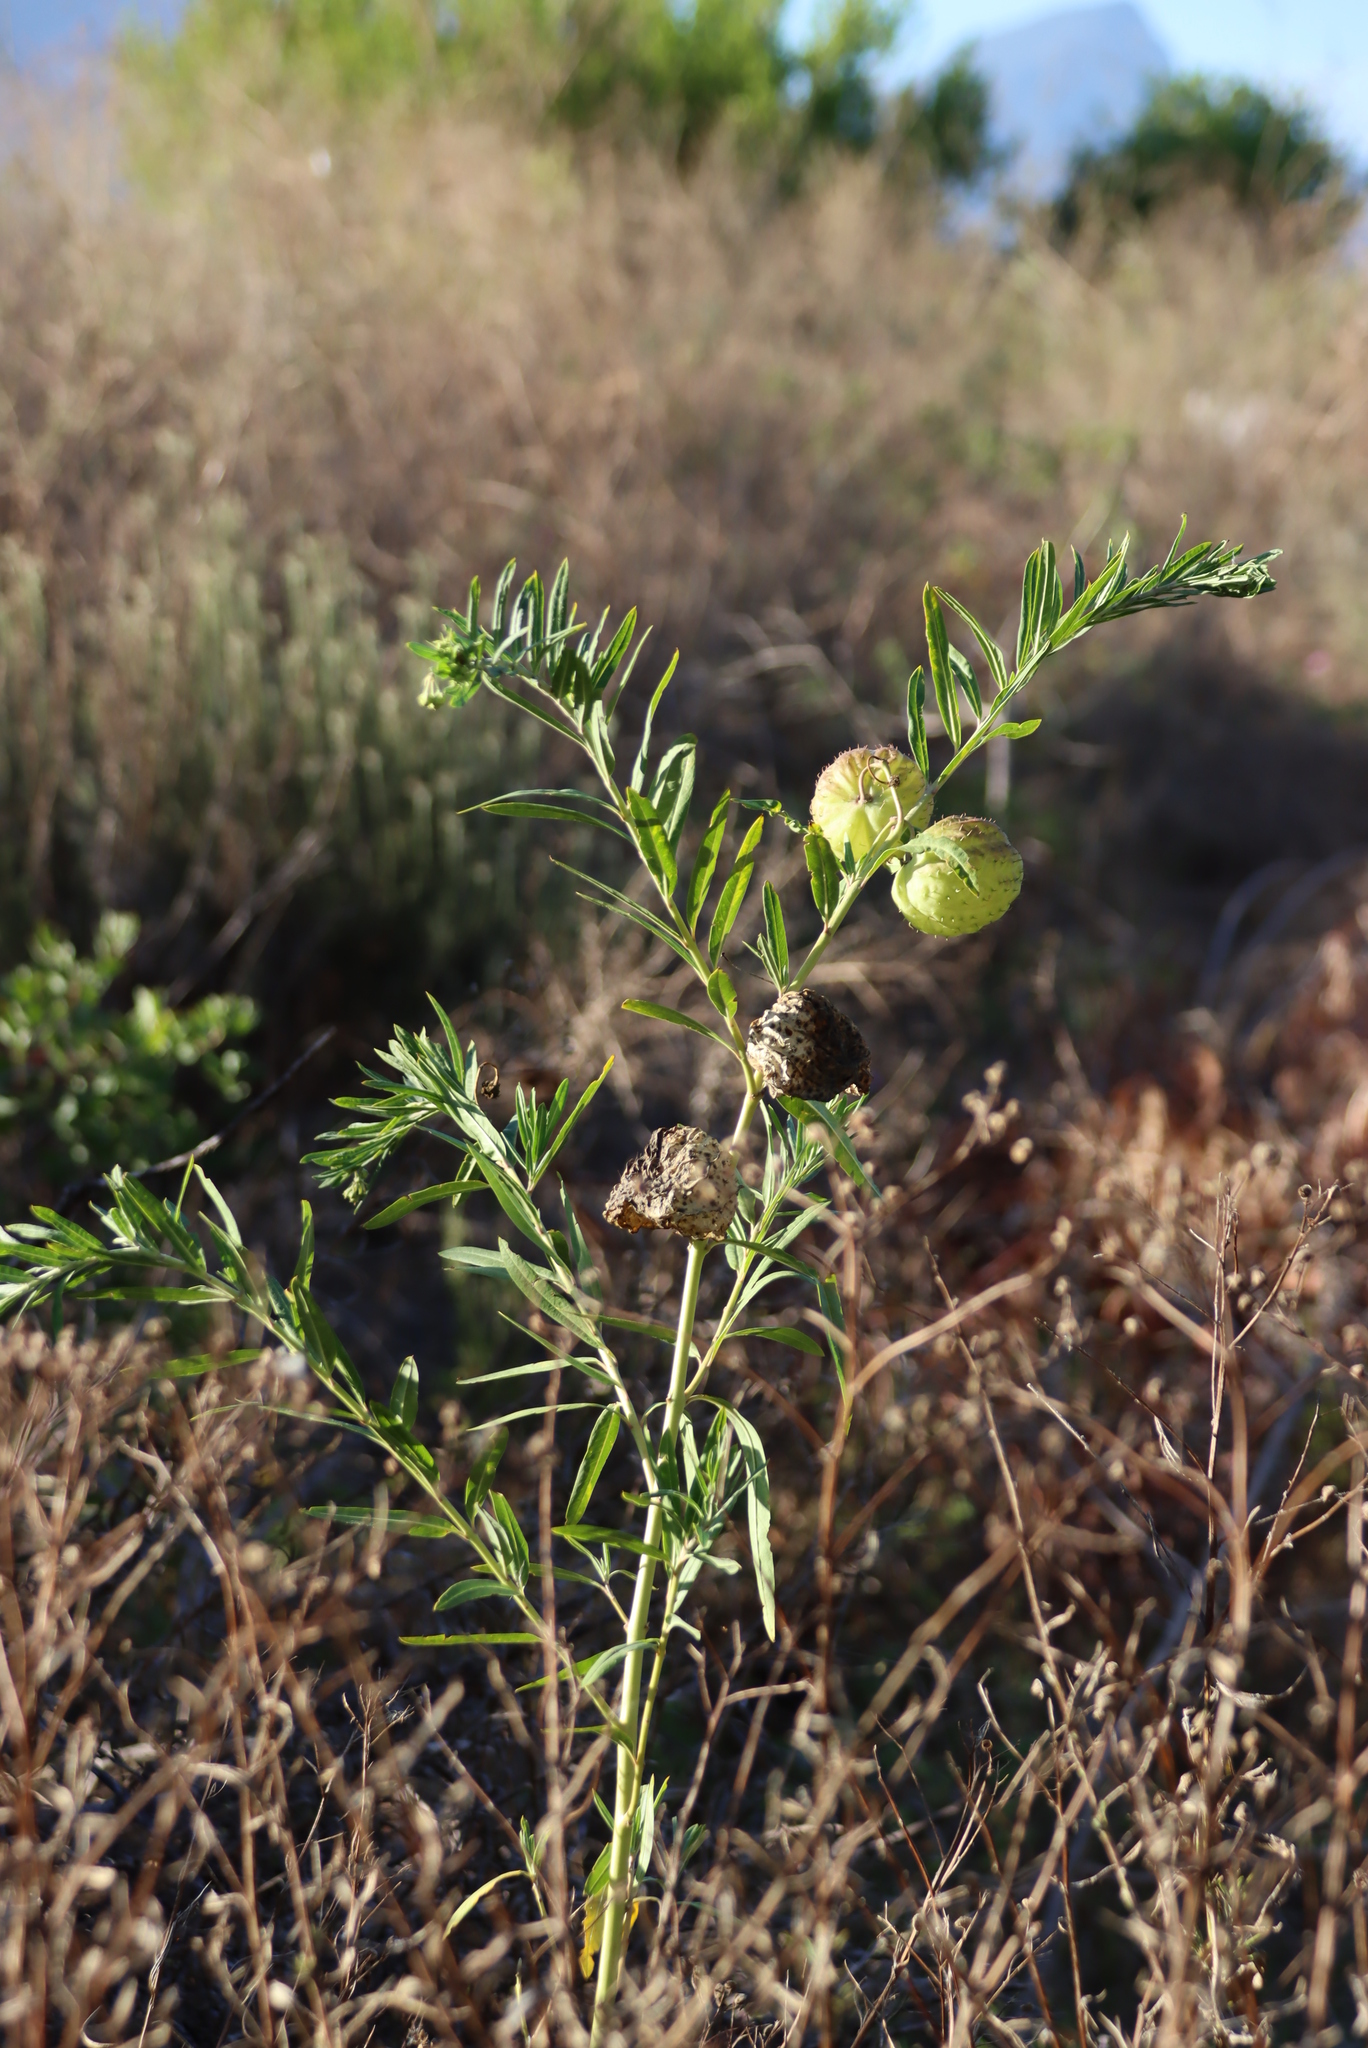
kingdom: Plantae
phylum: Tracheophyta
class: Magnoliopsida
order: Gentianales
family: Apocynaceae
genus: Gomphocarpus
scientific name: Gomphocarpus physocarpus
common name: Balloon cotton bush
